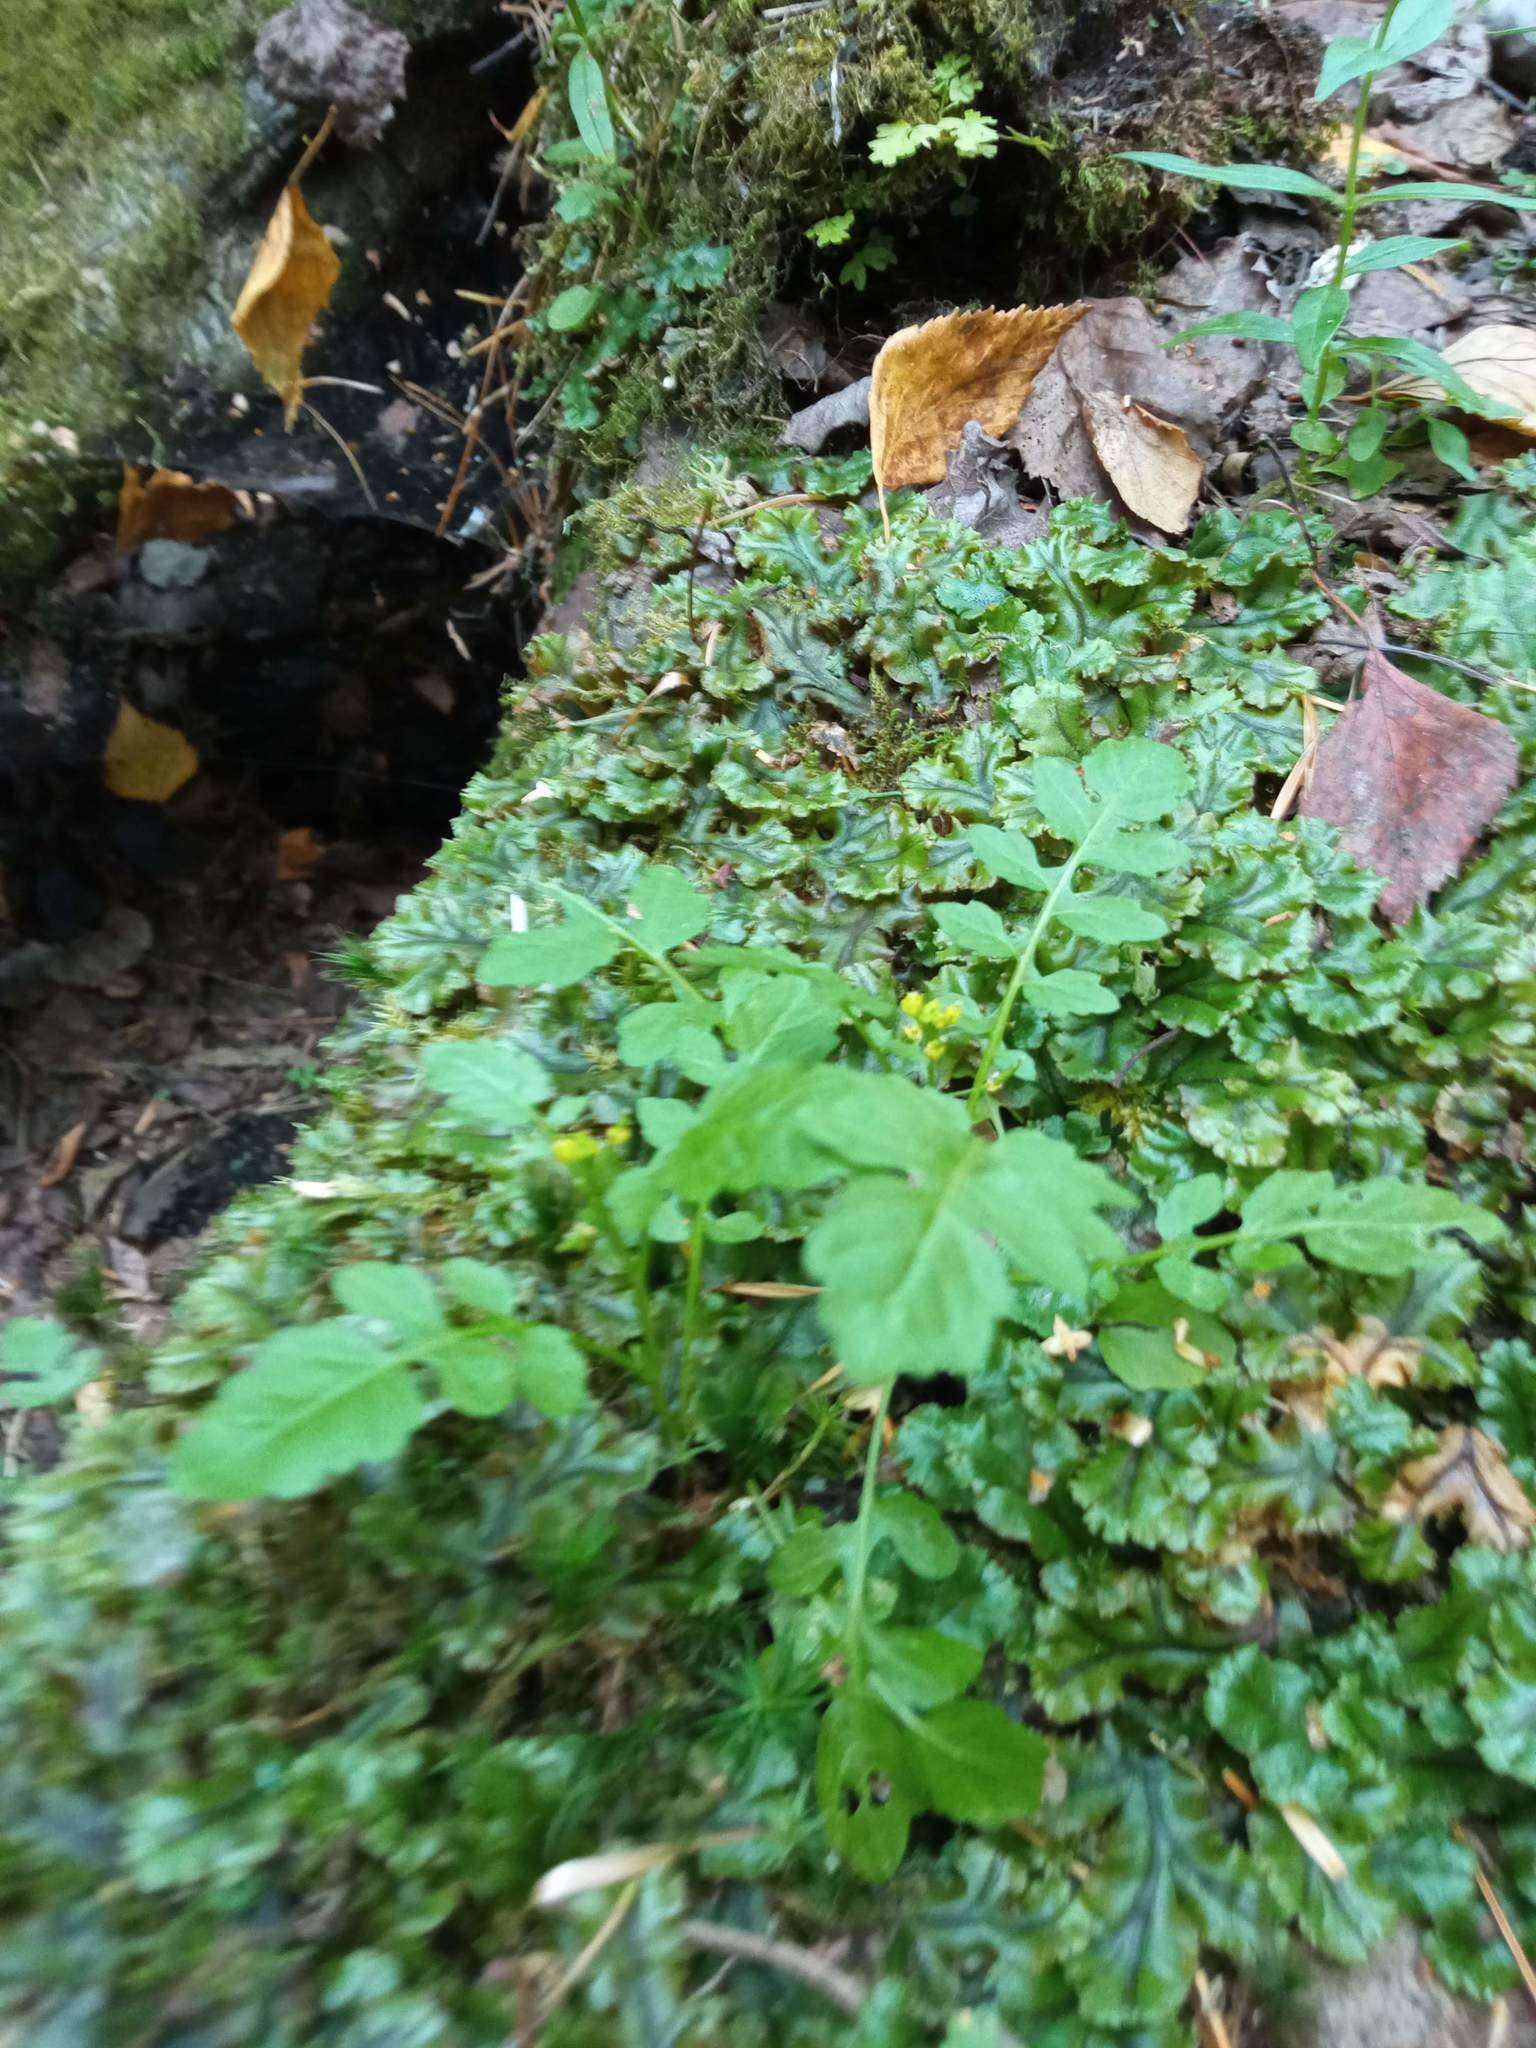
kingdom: Plantae
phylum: Tracheophyta
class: Magnoliopsida
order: Brassicales
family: Brassicaceae
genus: Rorippa
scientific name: Rorippa palustris
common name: Marsh yellow-cress
